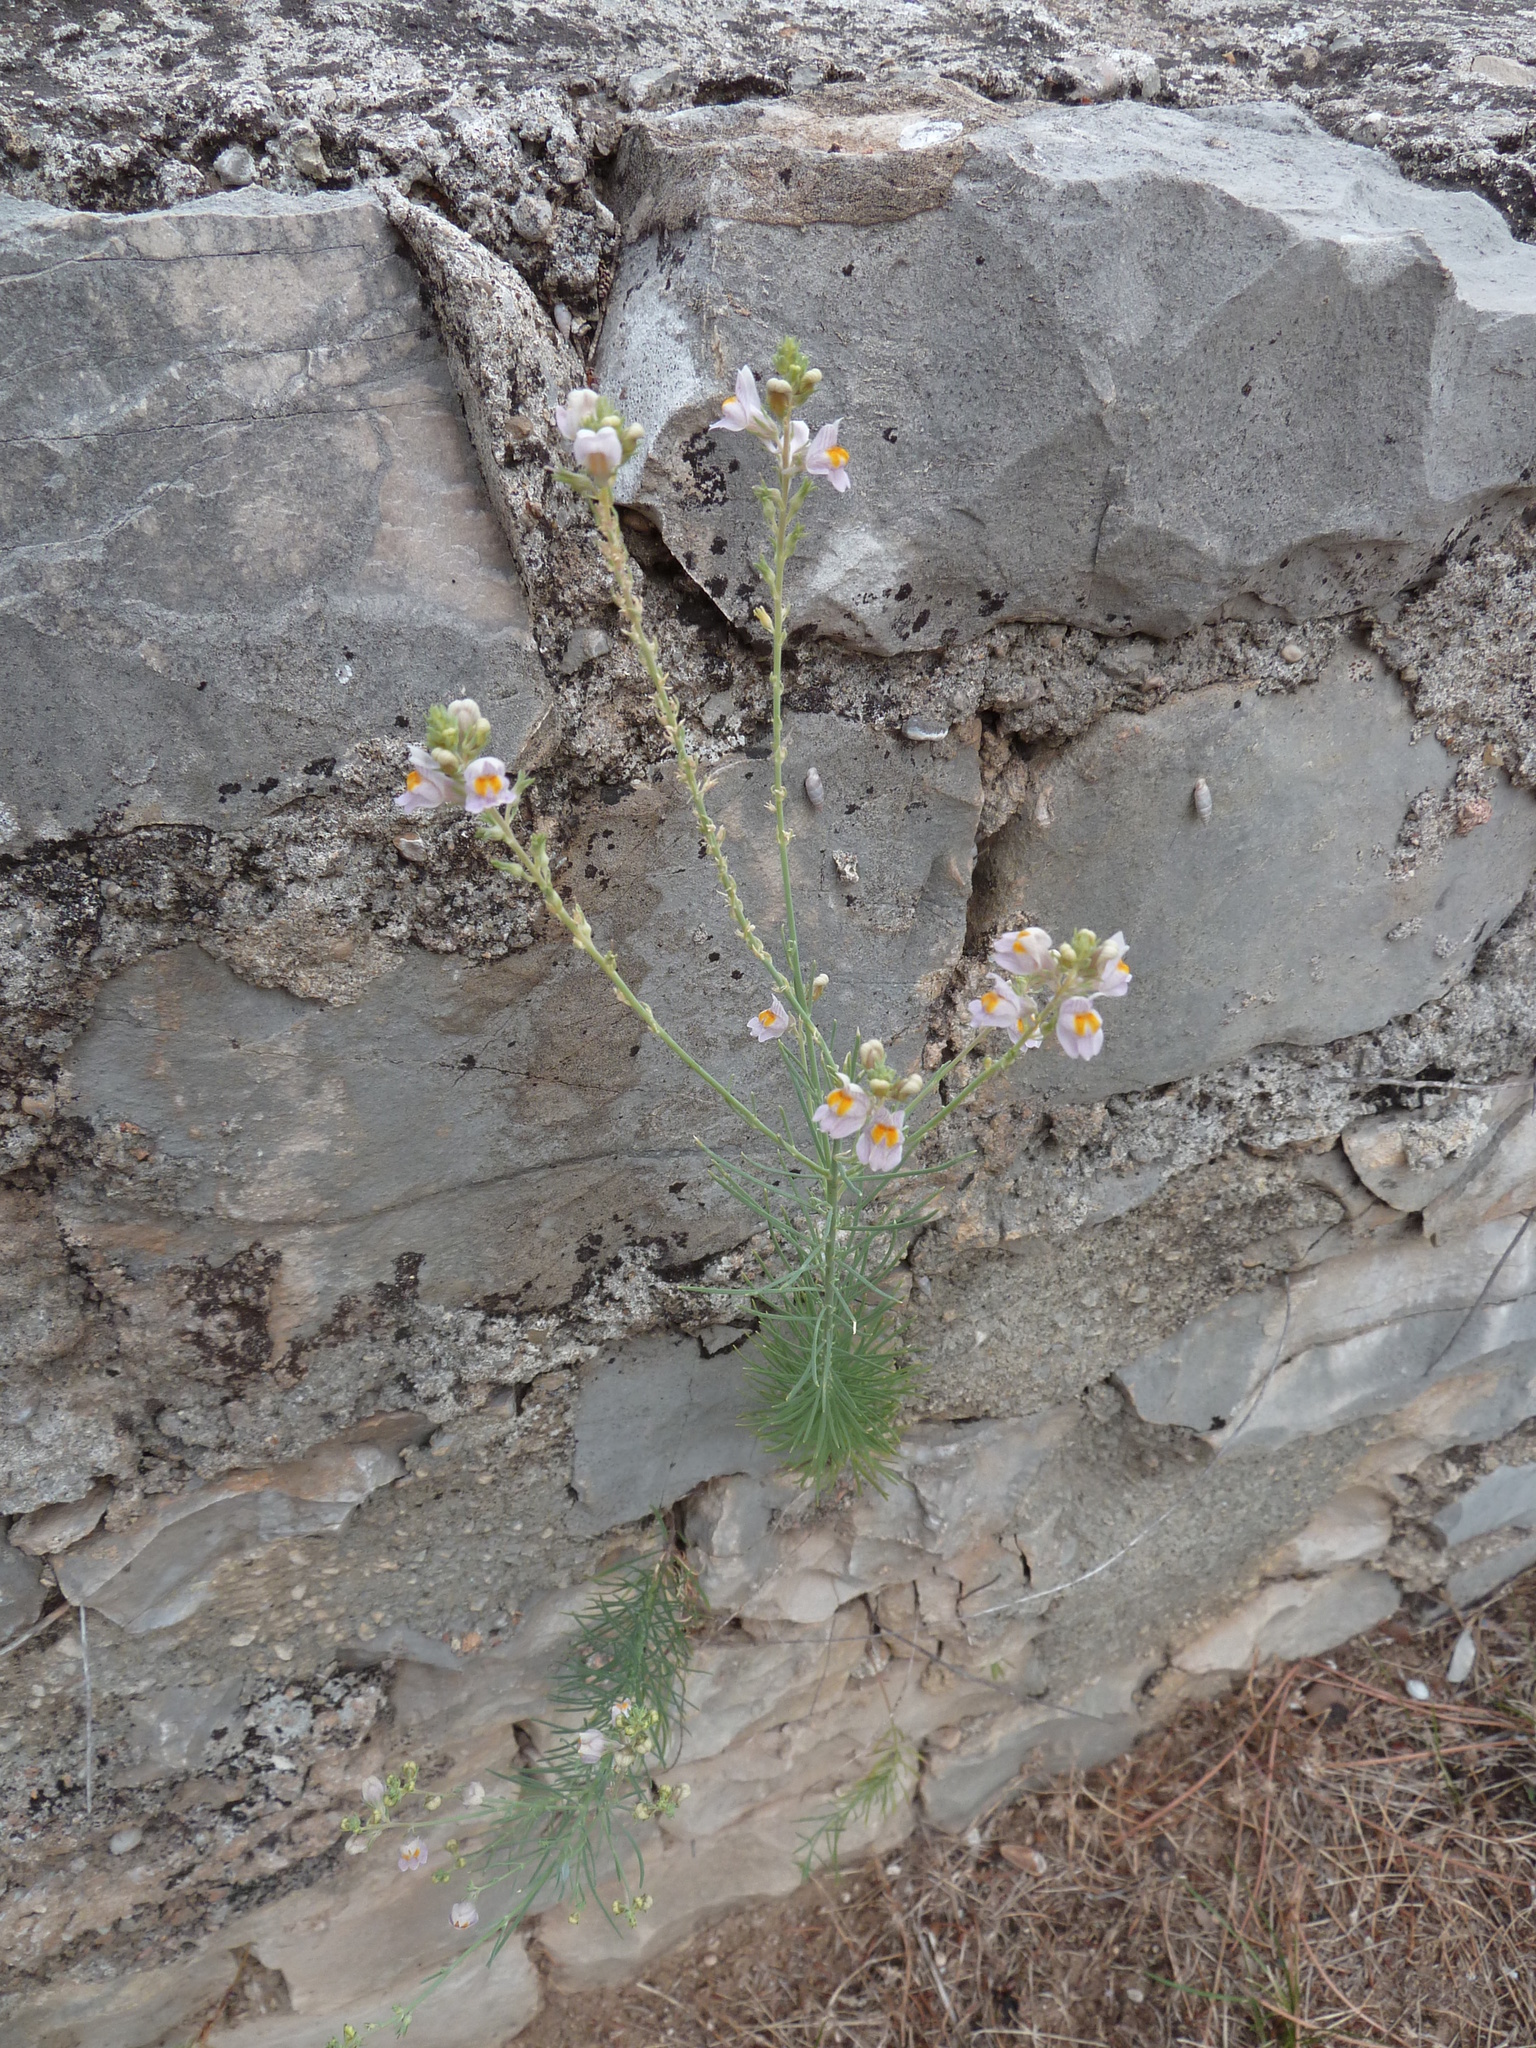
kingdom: Plantae
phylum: Tracheophyta
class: Magnoliopsida
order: Lamiales
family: Plantaginaceae
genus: Linaria
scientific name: Linaria repens
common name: Pale toadflax
